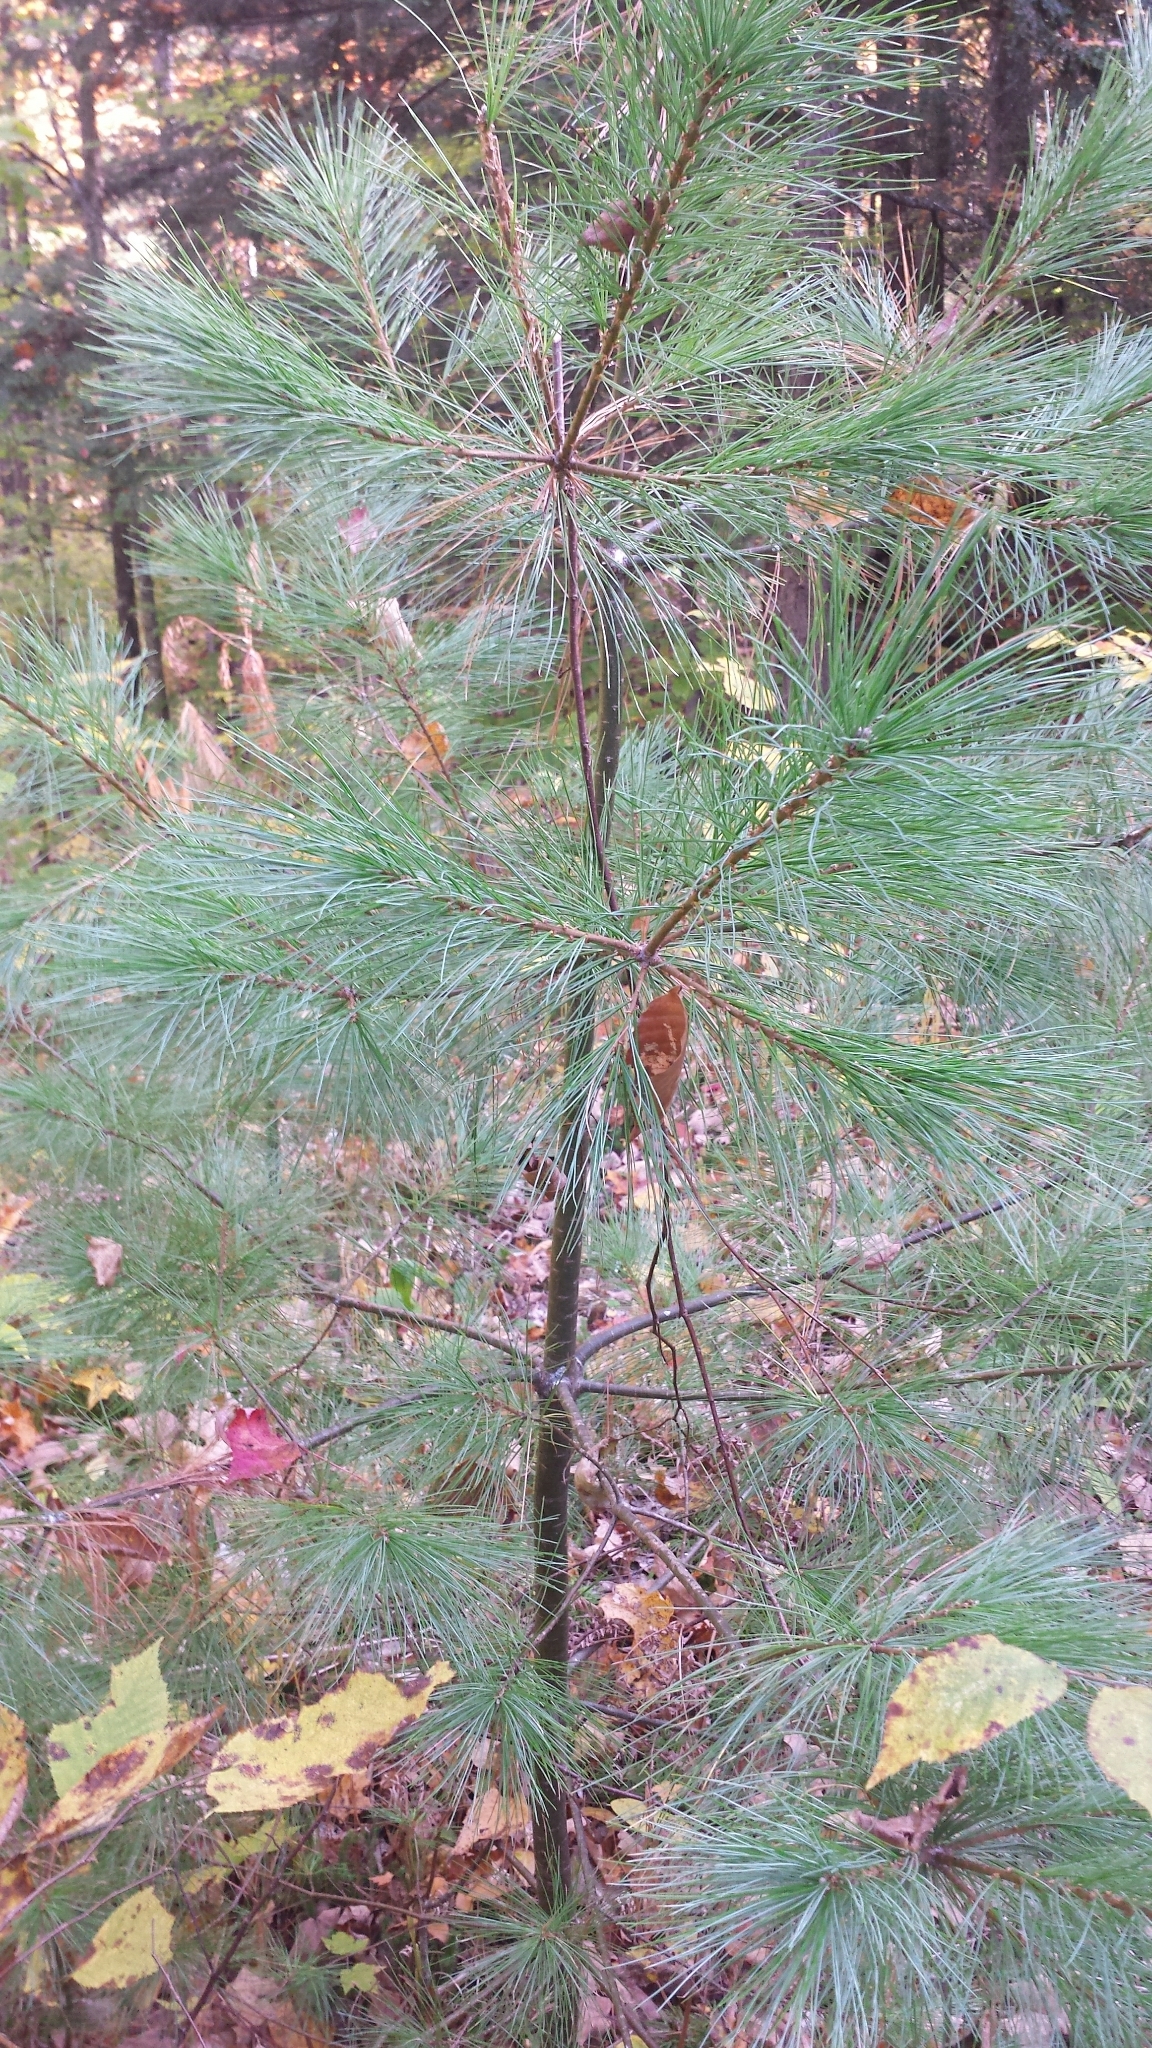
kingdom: Plantae
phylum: Tracheophyta
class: Pinopsida
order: Pinales
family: Pinaceae
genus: Pinus
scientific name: Pinus strobus
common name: Weymouth pine
